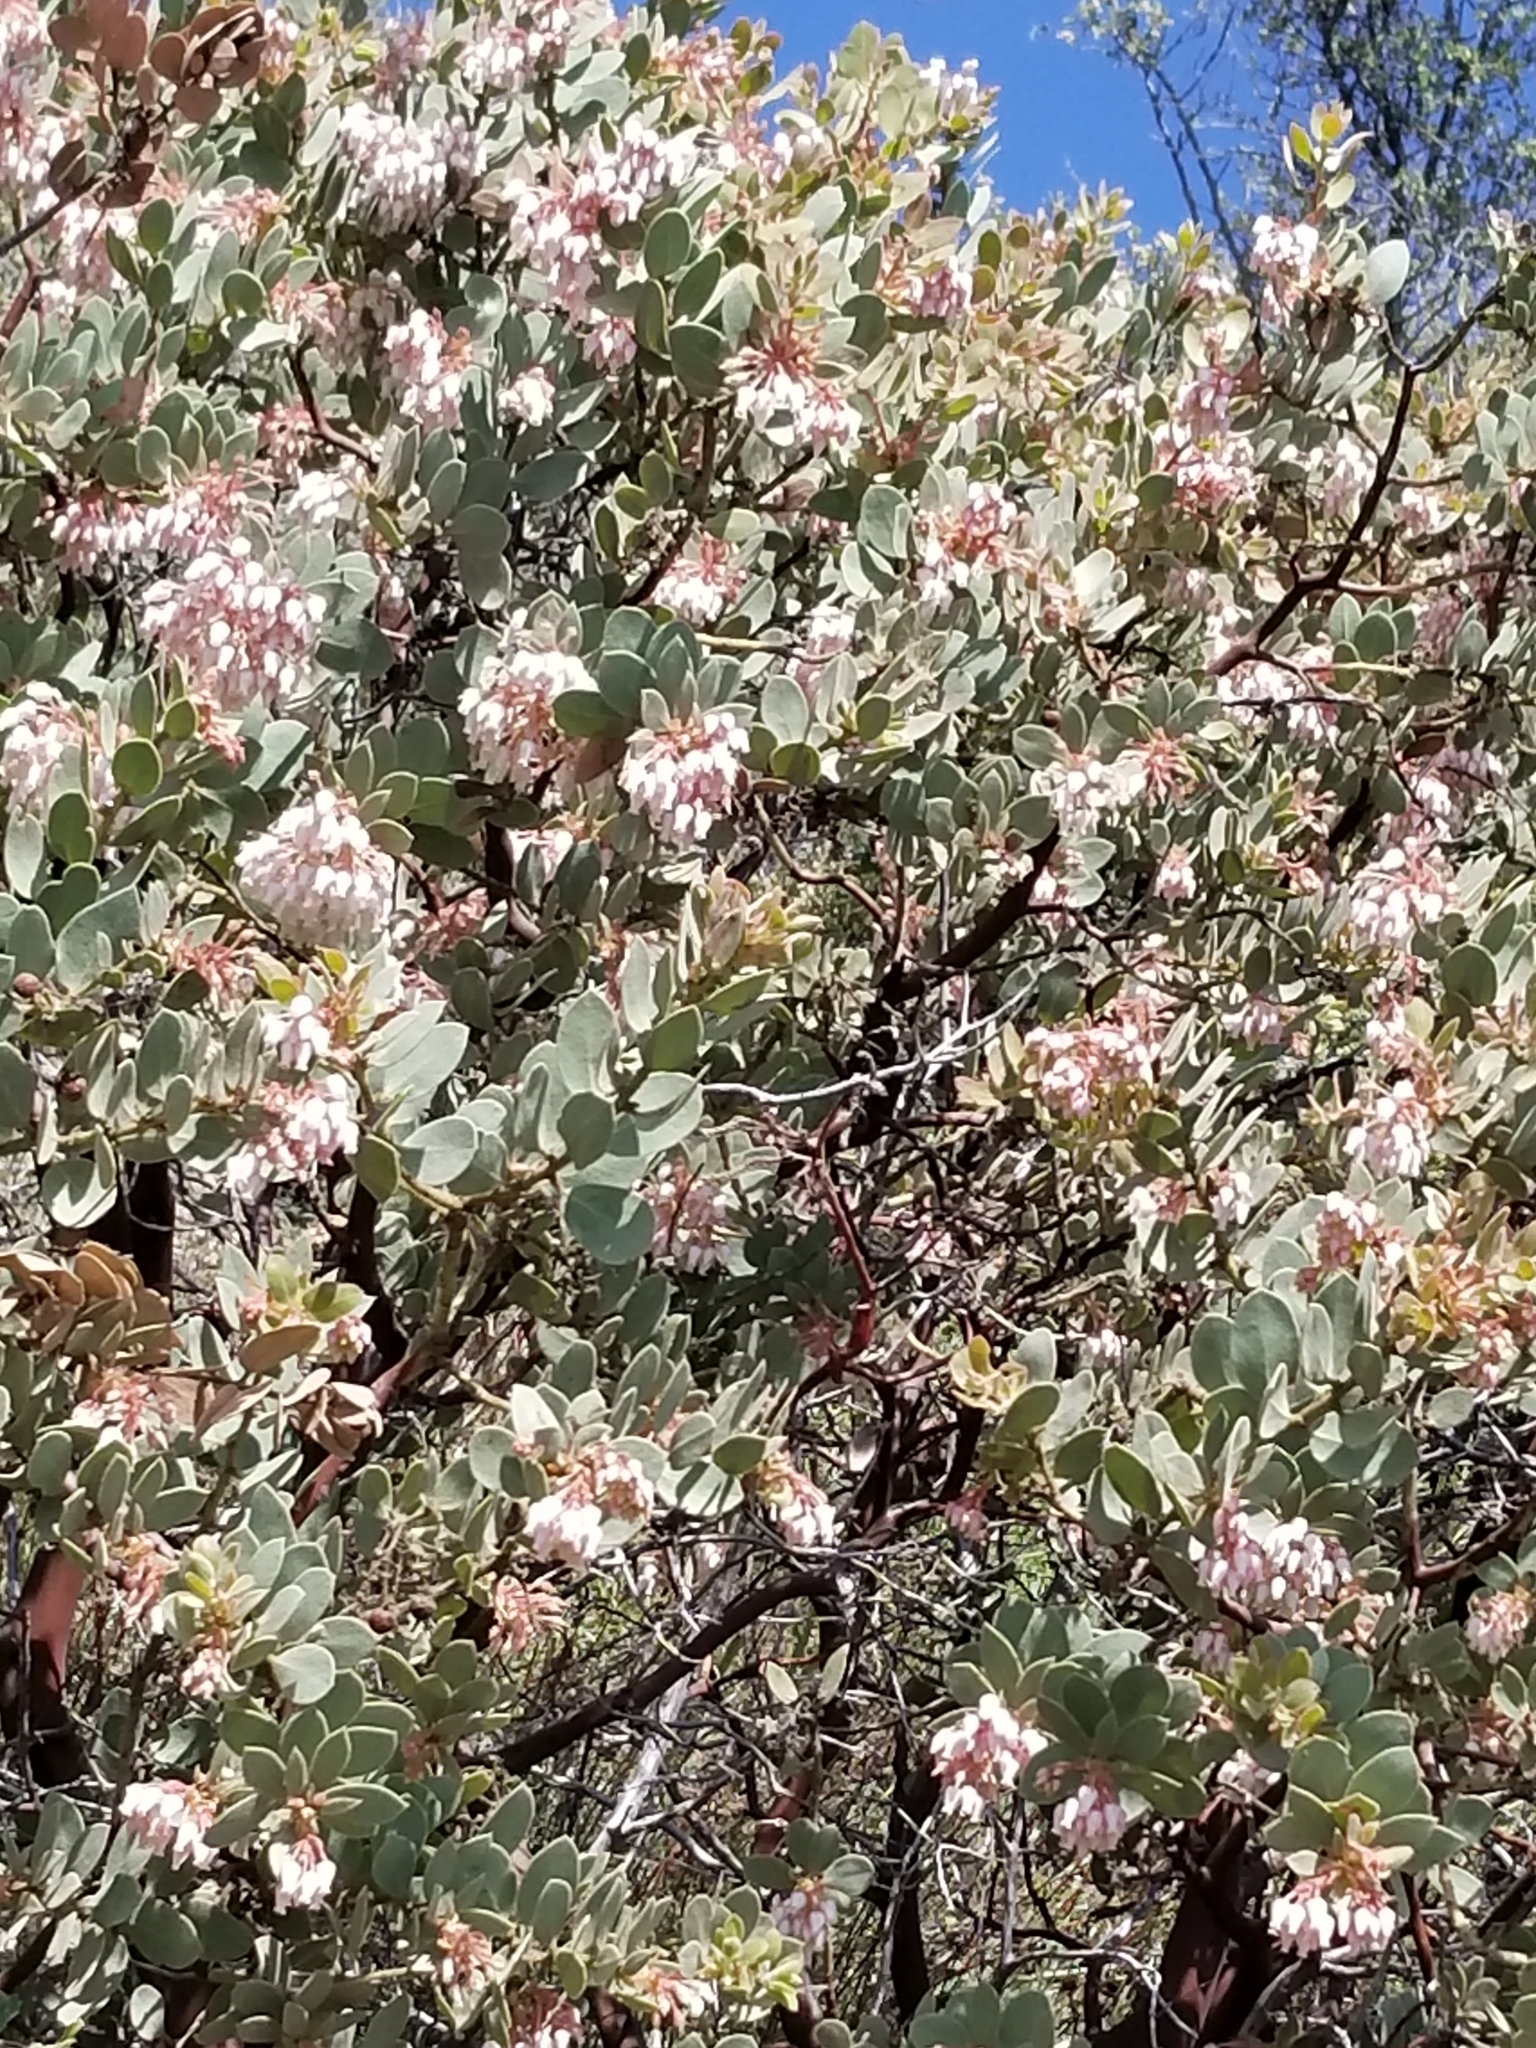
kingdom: Plantae
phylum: Tracheophyta
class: Magnoliopsida
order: Ericales
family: Ericaceae
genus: Arctostaphylos
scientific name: Arctostaphylos pringlei
